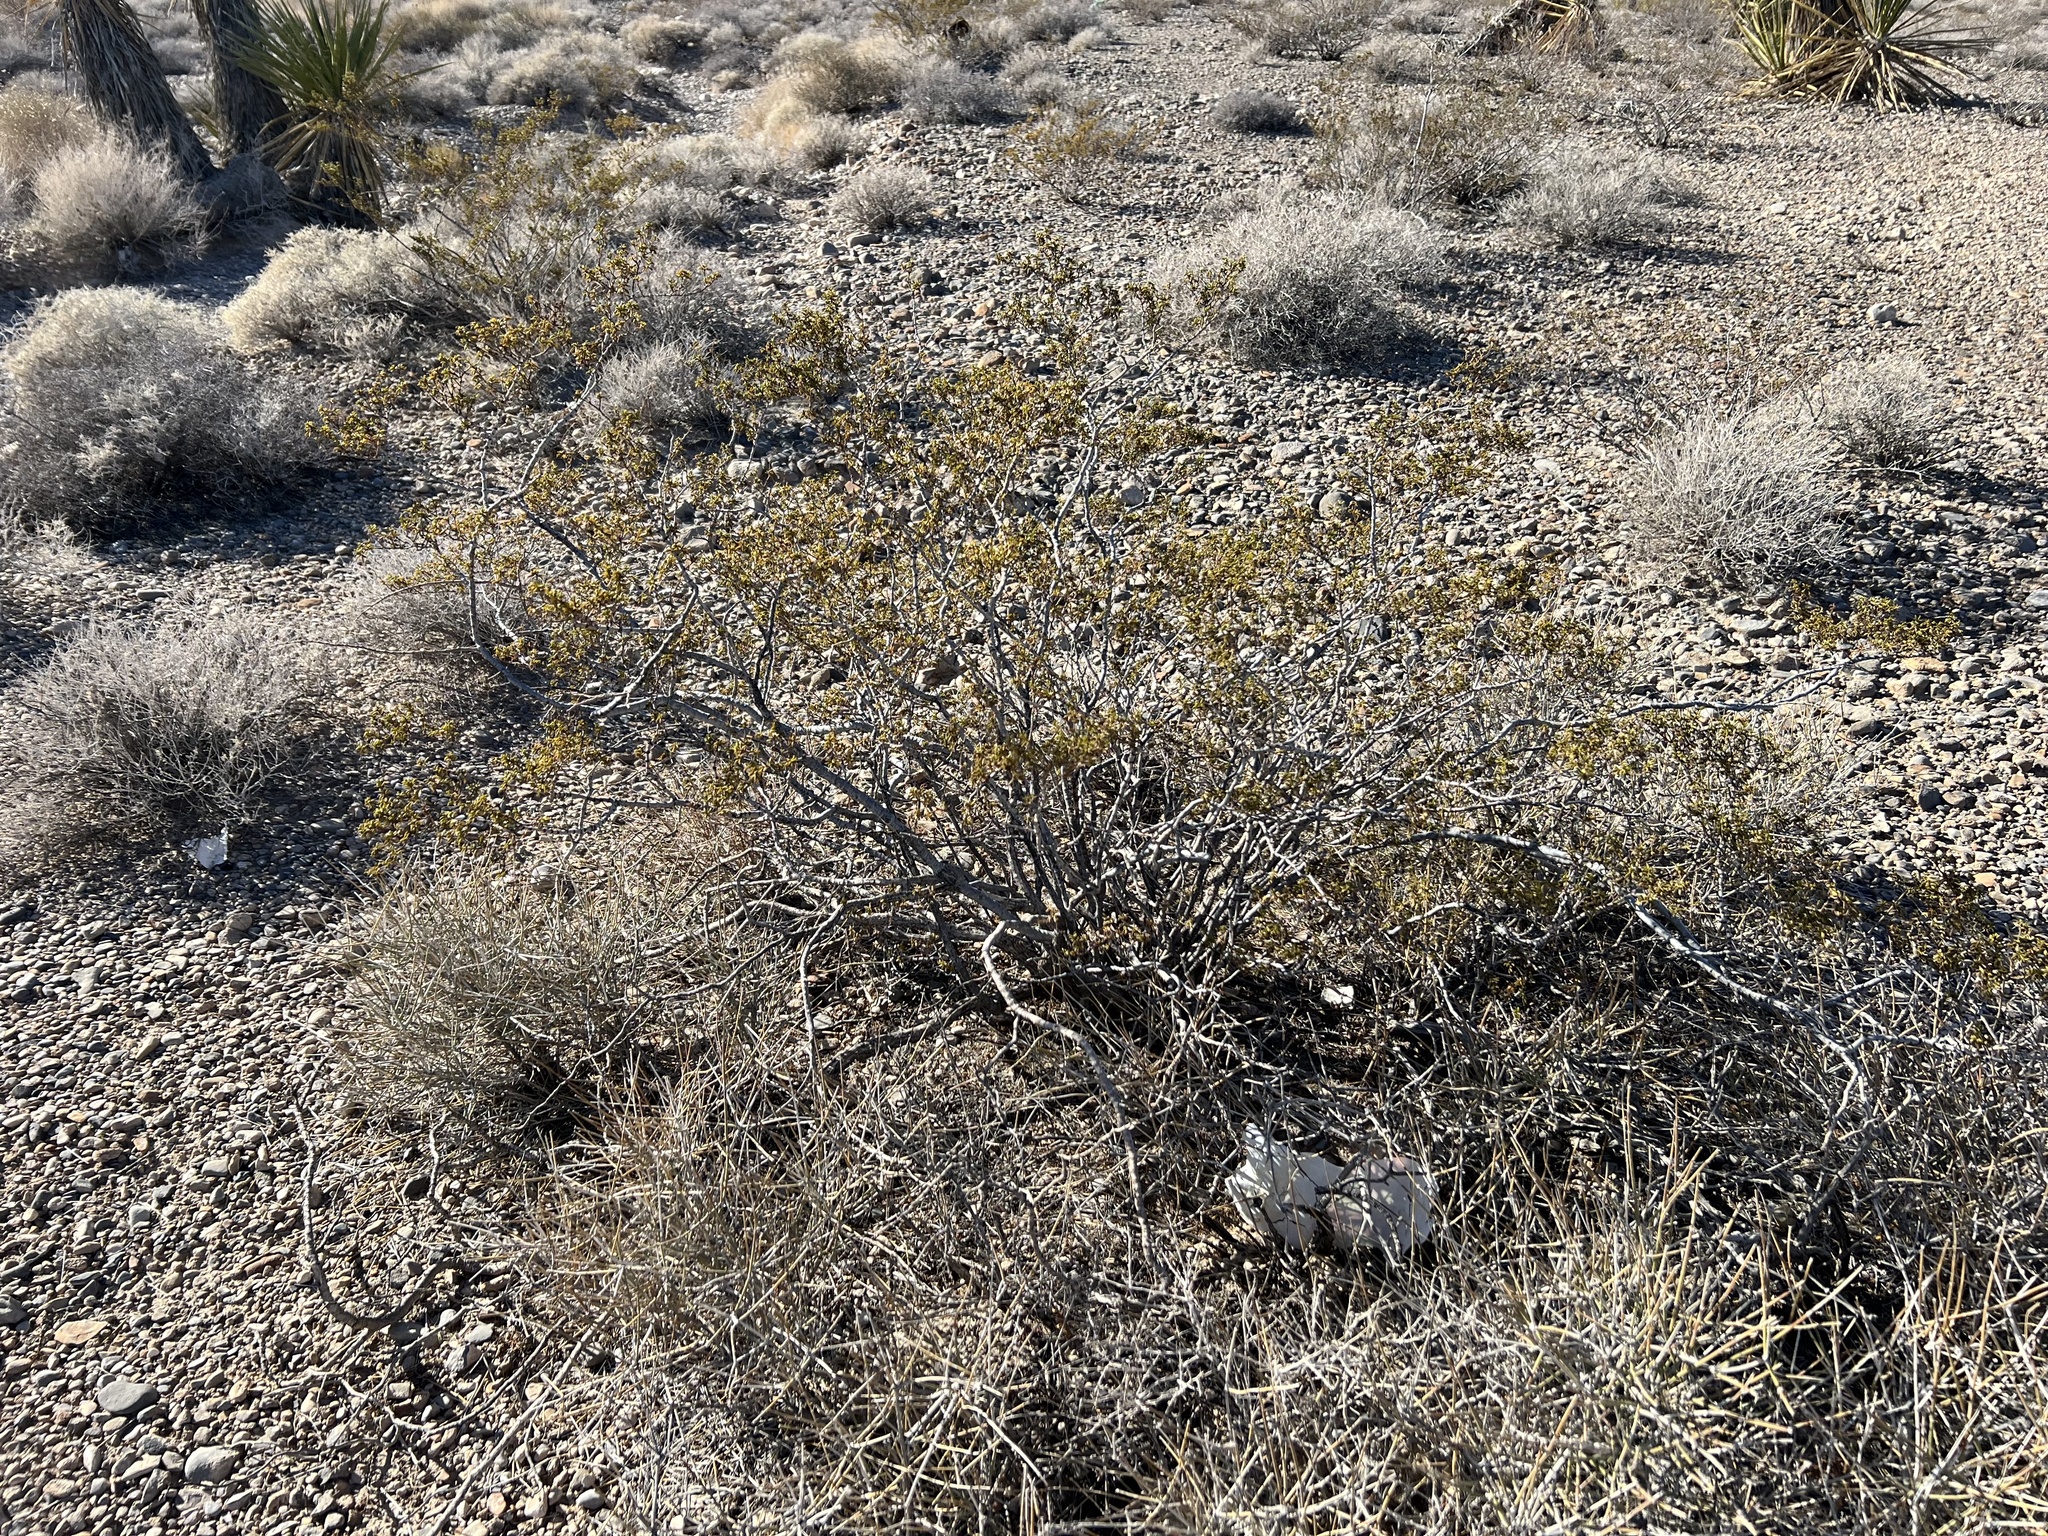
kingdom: Plantae
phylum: Tracheophyta
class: Magnoliopsida
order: Zygophyllales
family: Zygophyllaceae
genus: Larrea
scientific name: Larrea tridentata
